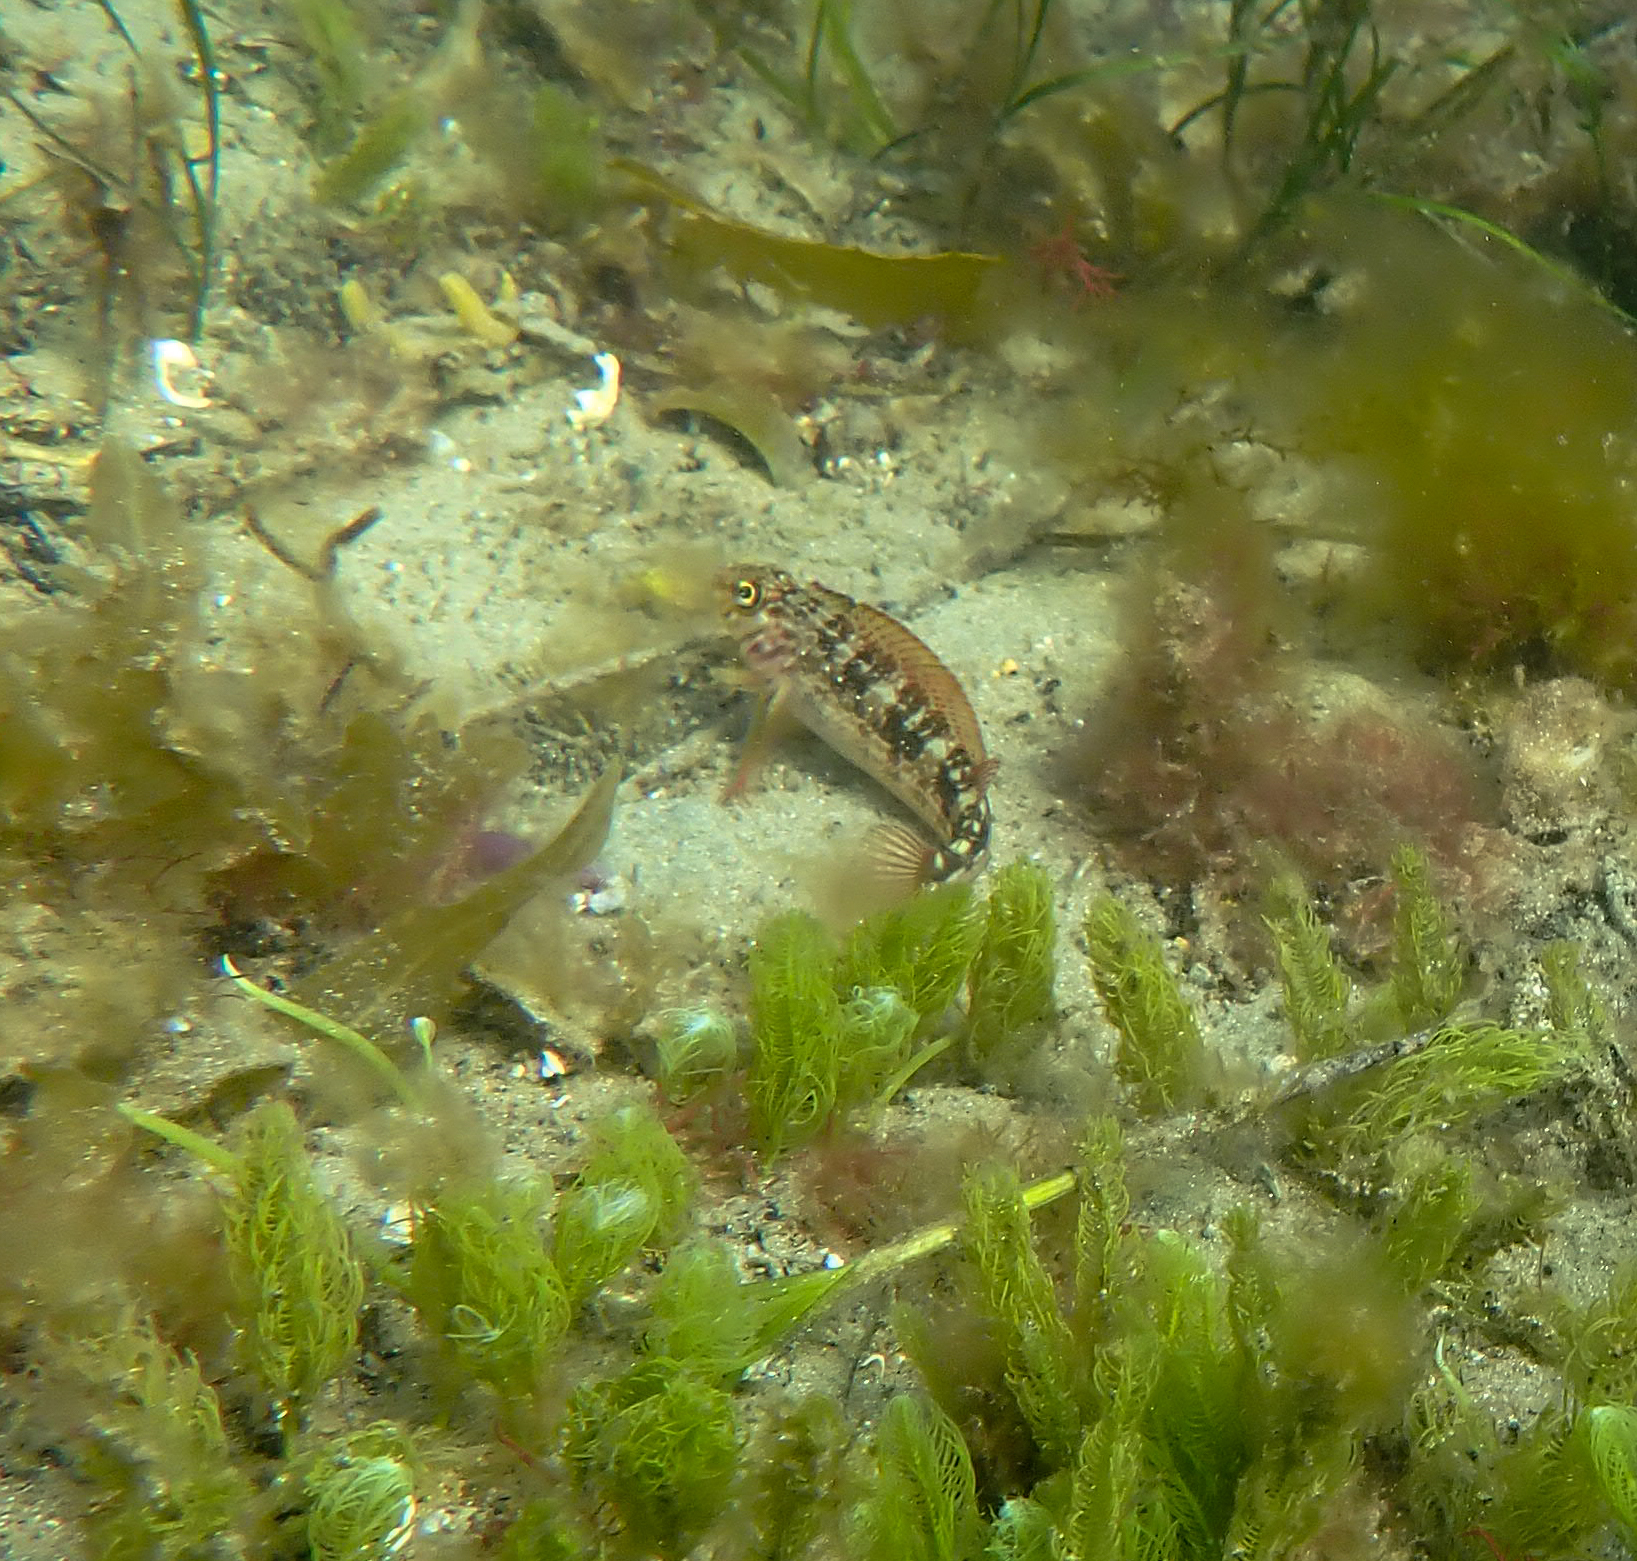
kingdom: Animalia
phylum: Chordata
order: Perciformes
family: Tripterygiidae
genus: Forsterygion
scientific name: Forsterygion varium
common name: Variable triplefin
